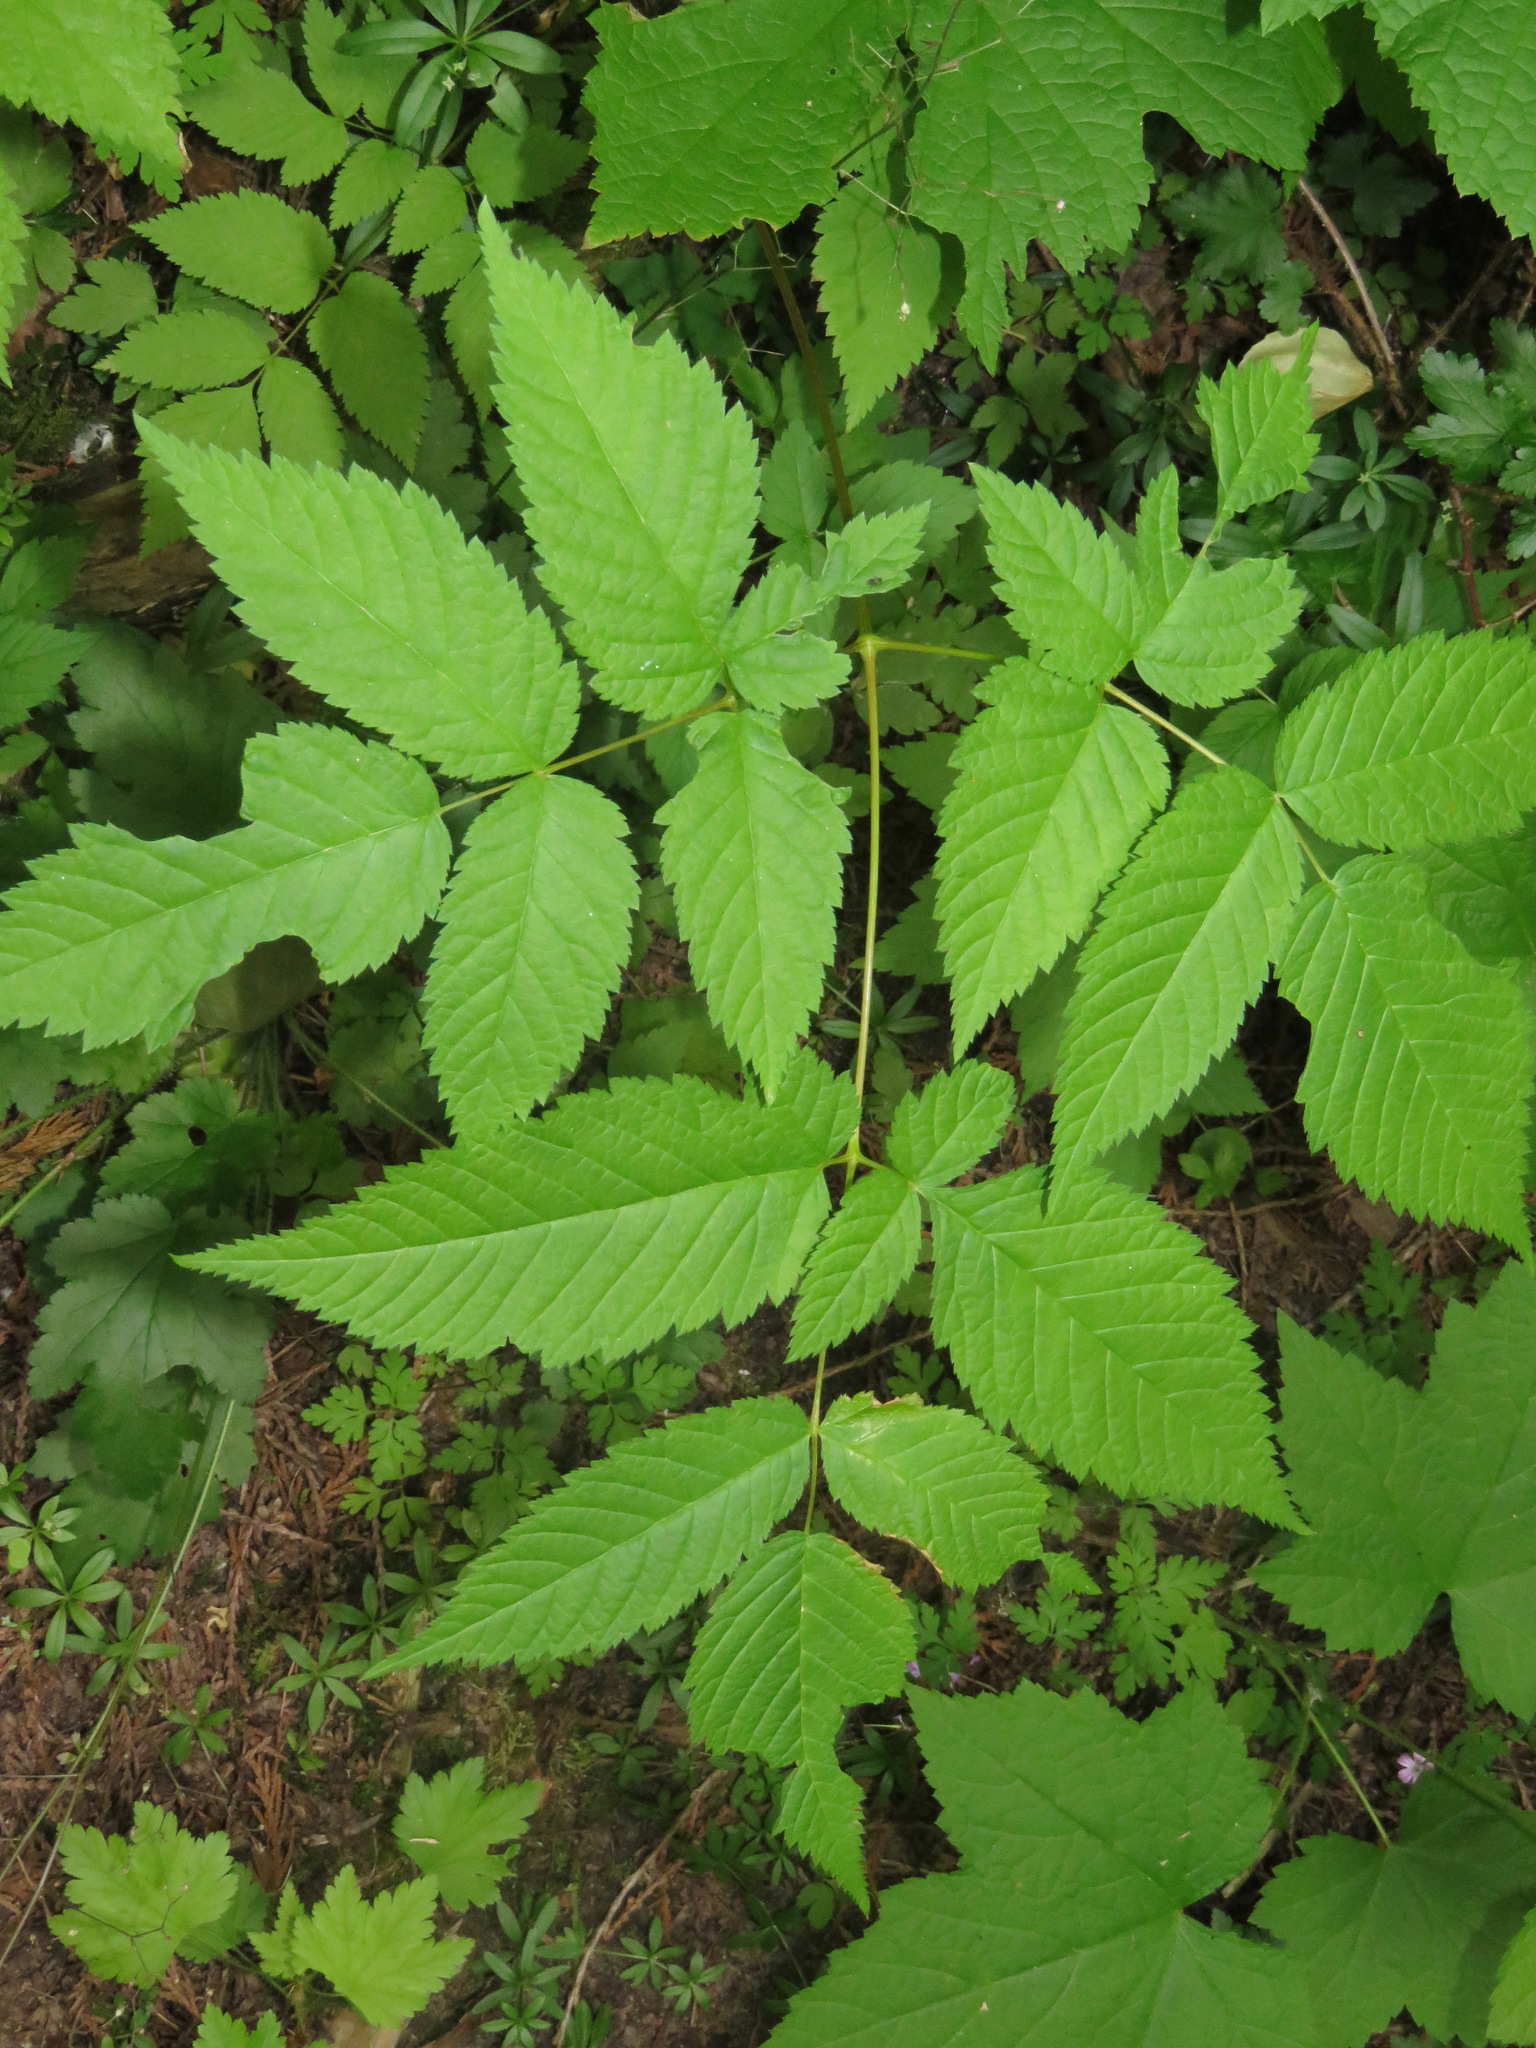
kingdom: Plantae
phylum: Tracheophyta
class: Magnoliopsida
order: Rosales
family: Rosaceae
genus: Aruncus
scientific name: Aruncus dioicus
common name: Buck's-beard
